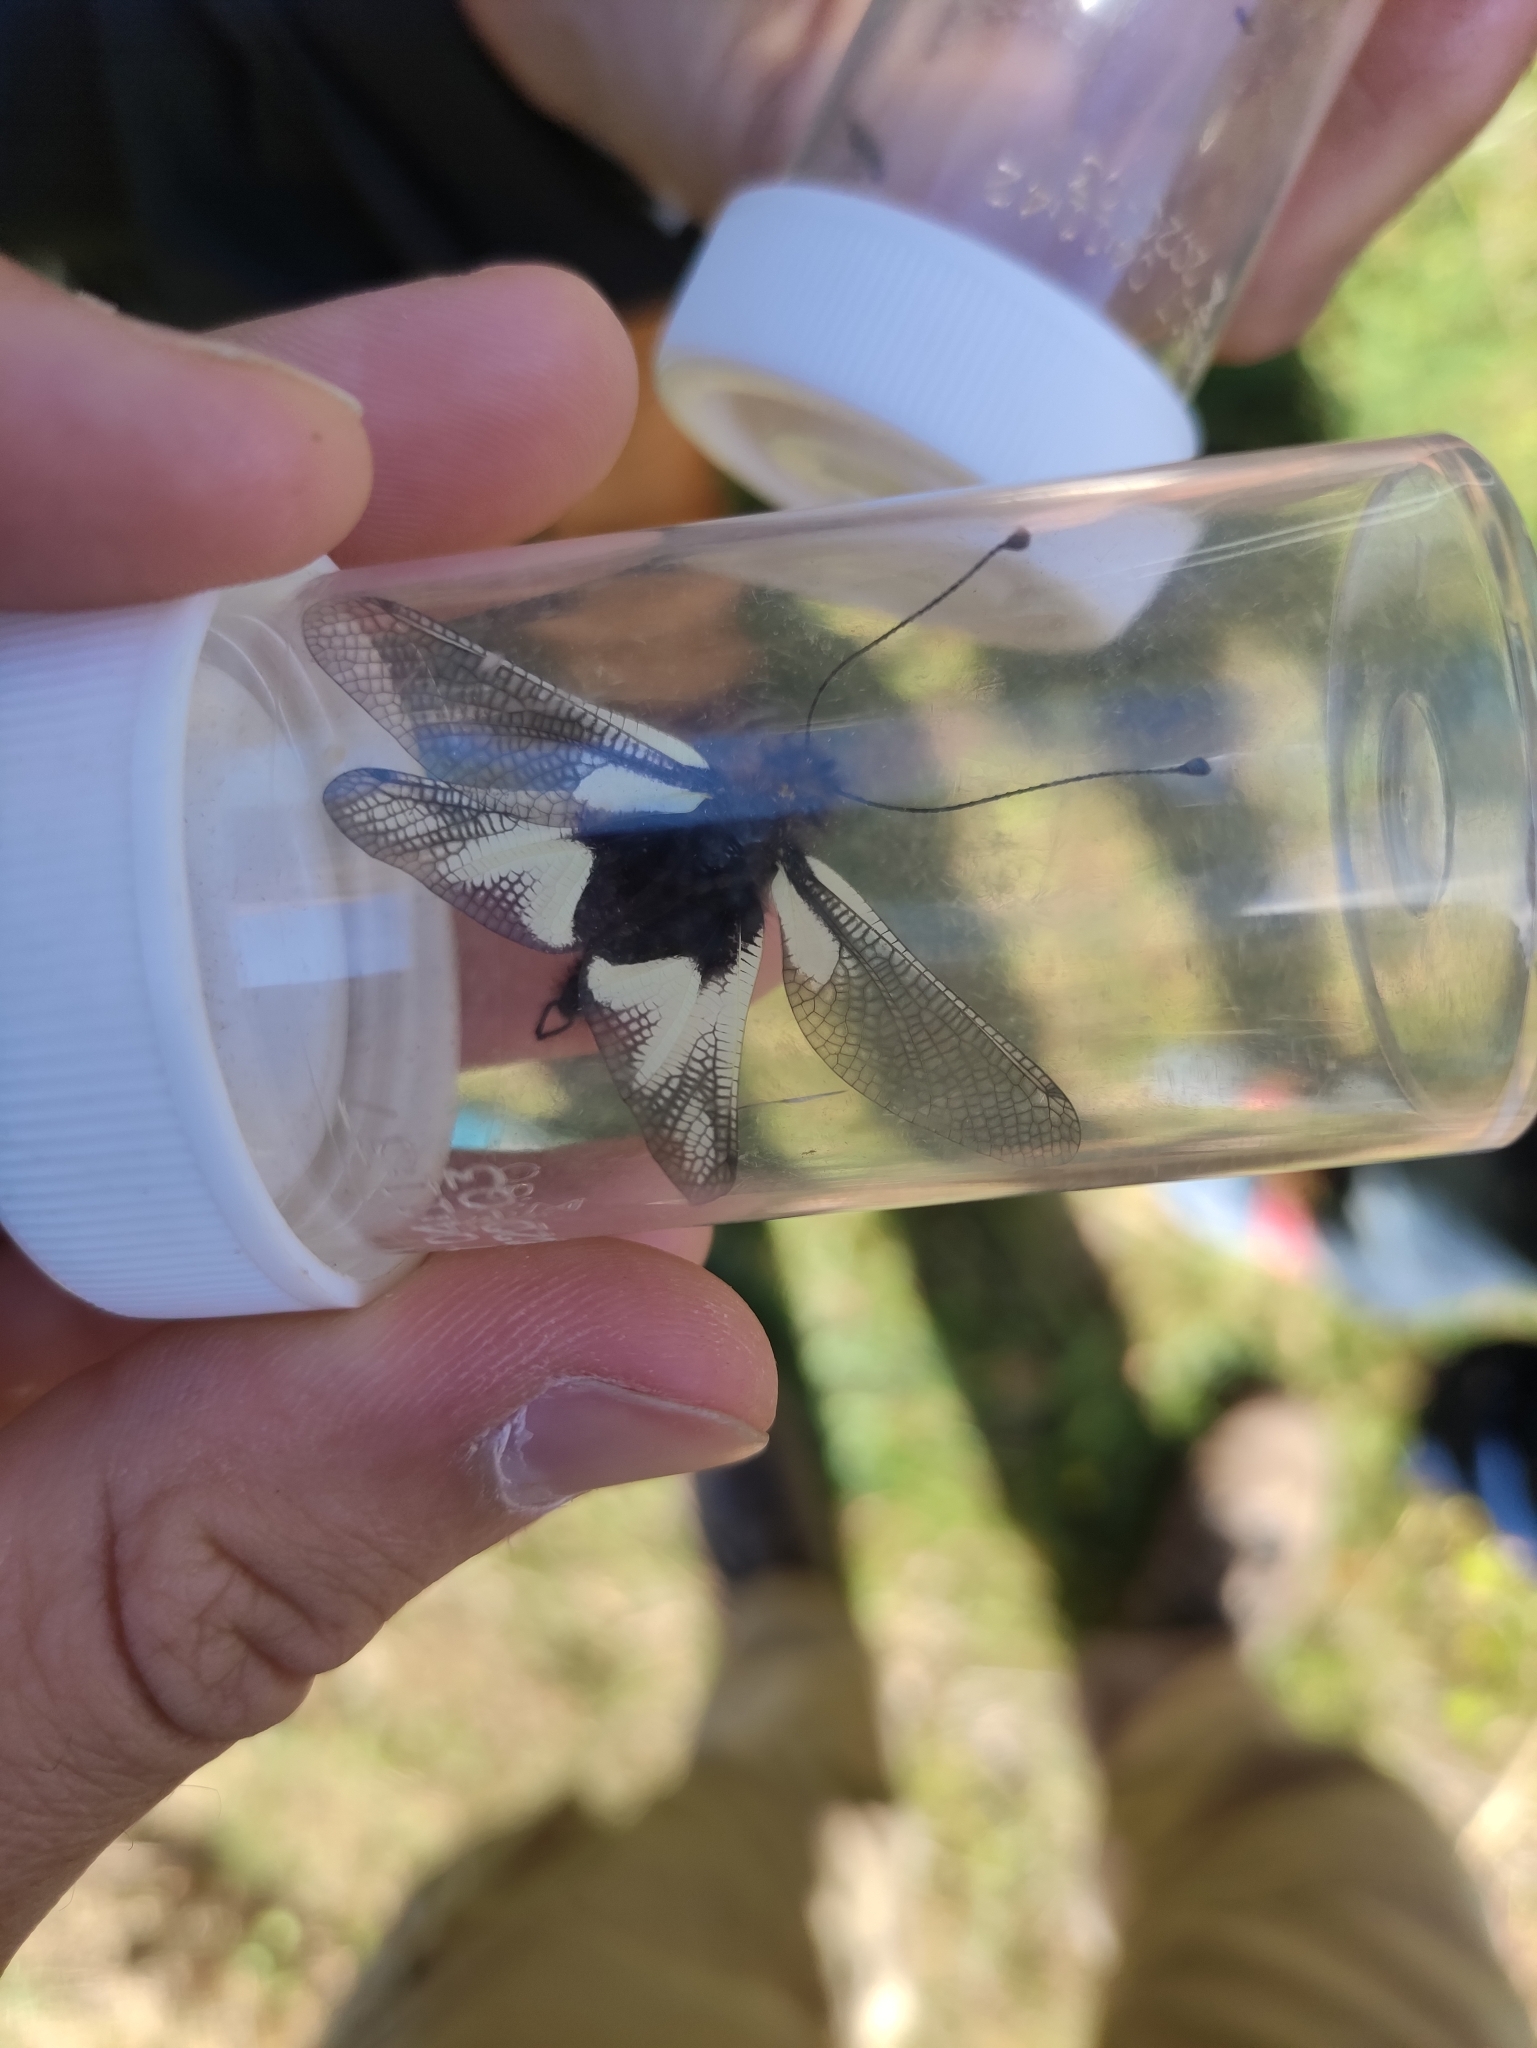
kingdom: Animalia
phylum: Arthropoda
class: Insecta
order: Neuroptera
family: Ascalaphidae
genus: Libelloides
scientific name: Libelloides coccajus
